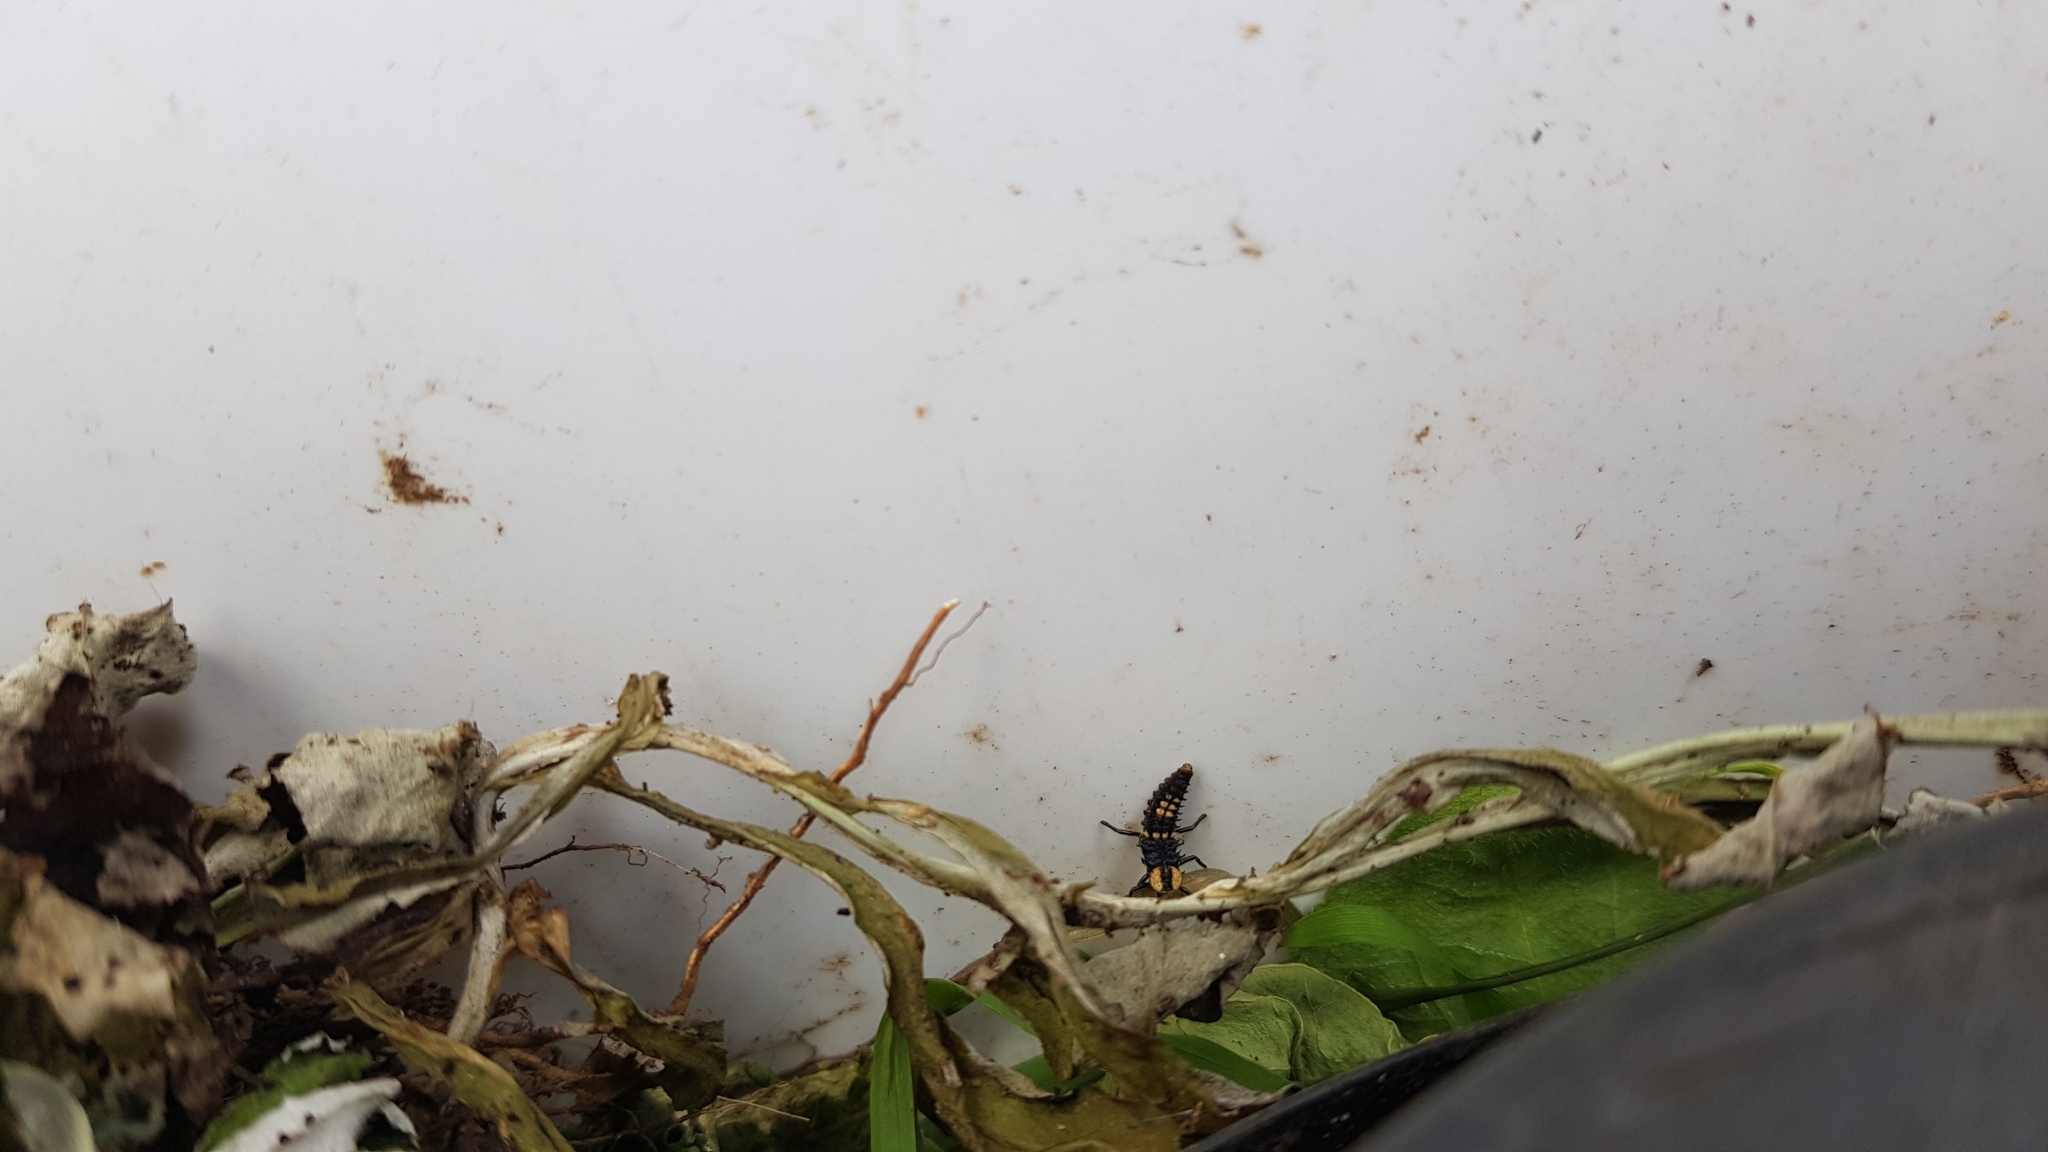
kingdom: Animalia
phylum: Arthropoda
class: Insecta
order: Coleoptera
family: Coccinellidae
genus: Harmonia
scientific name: Harmonia
